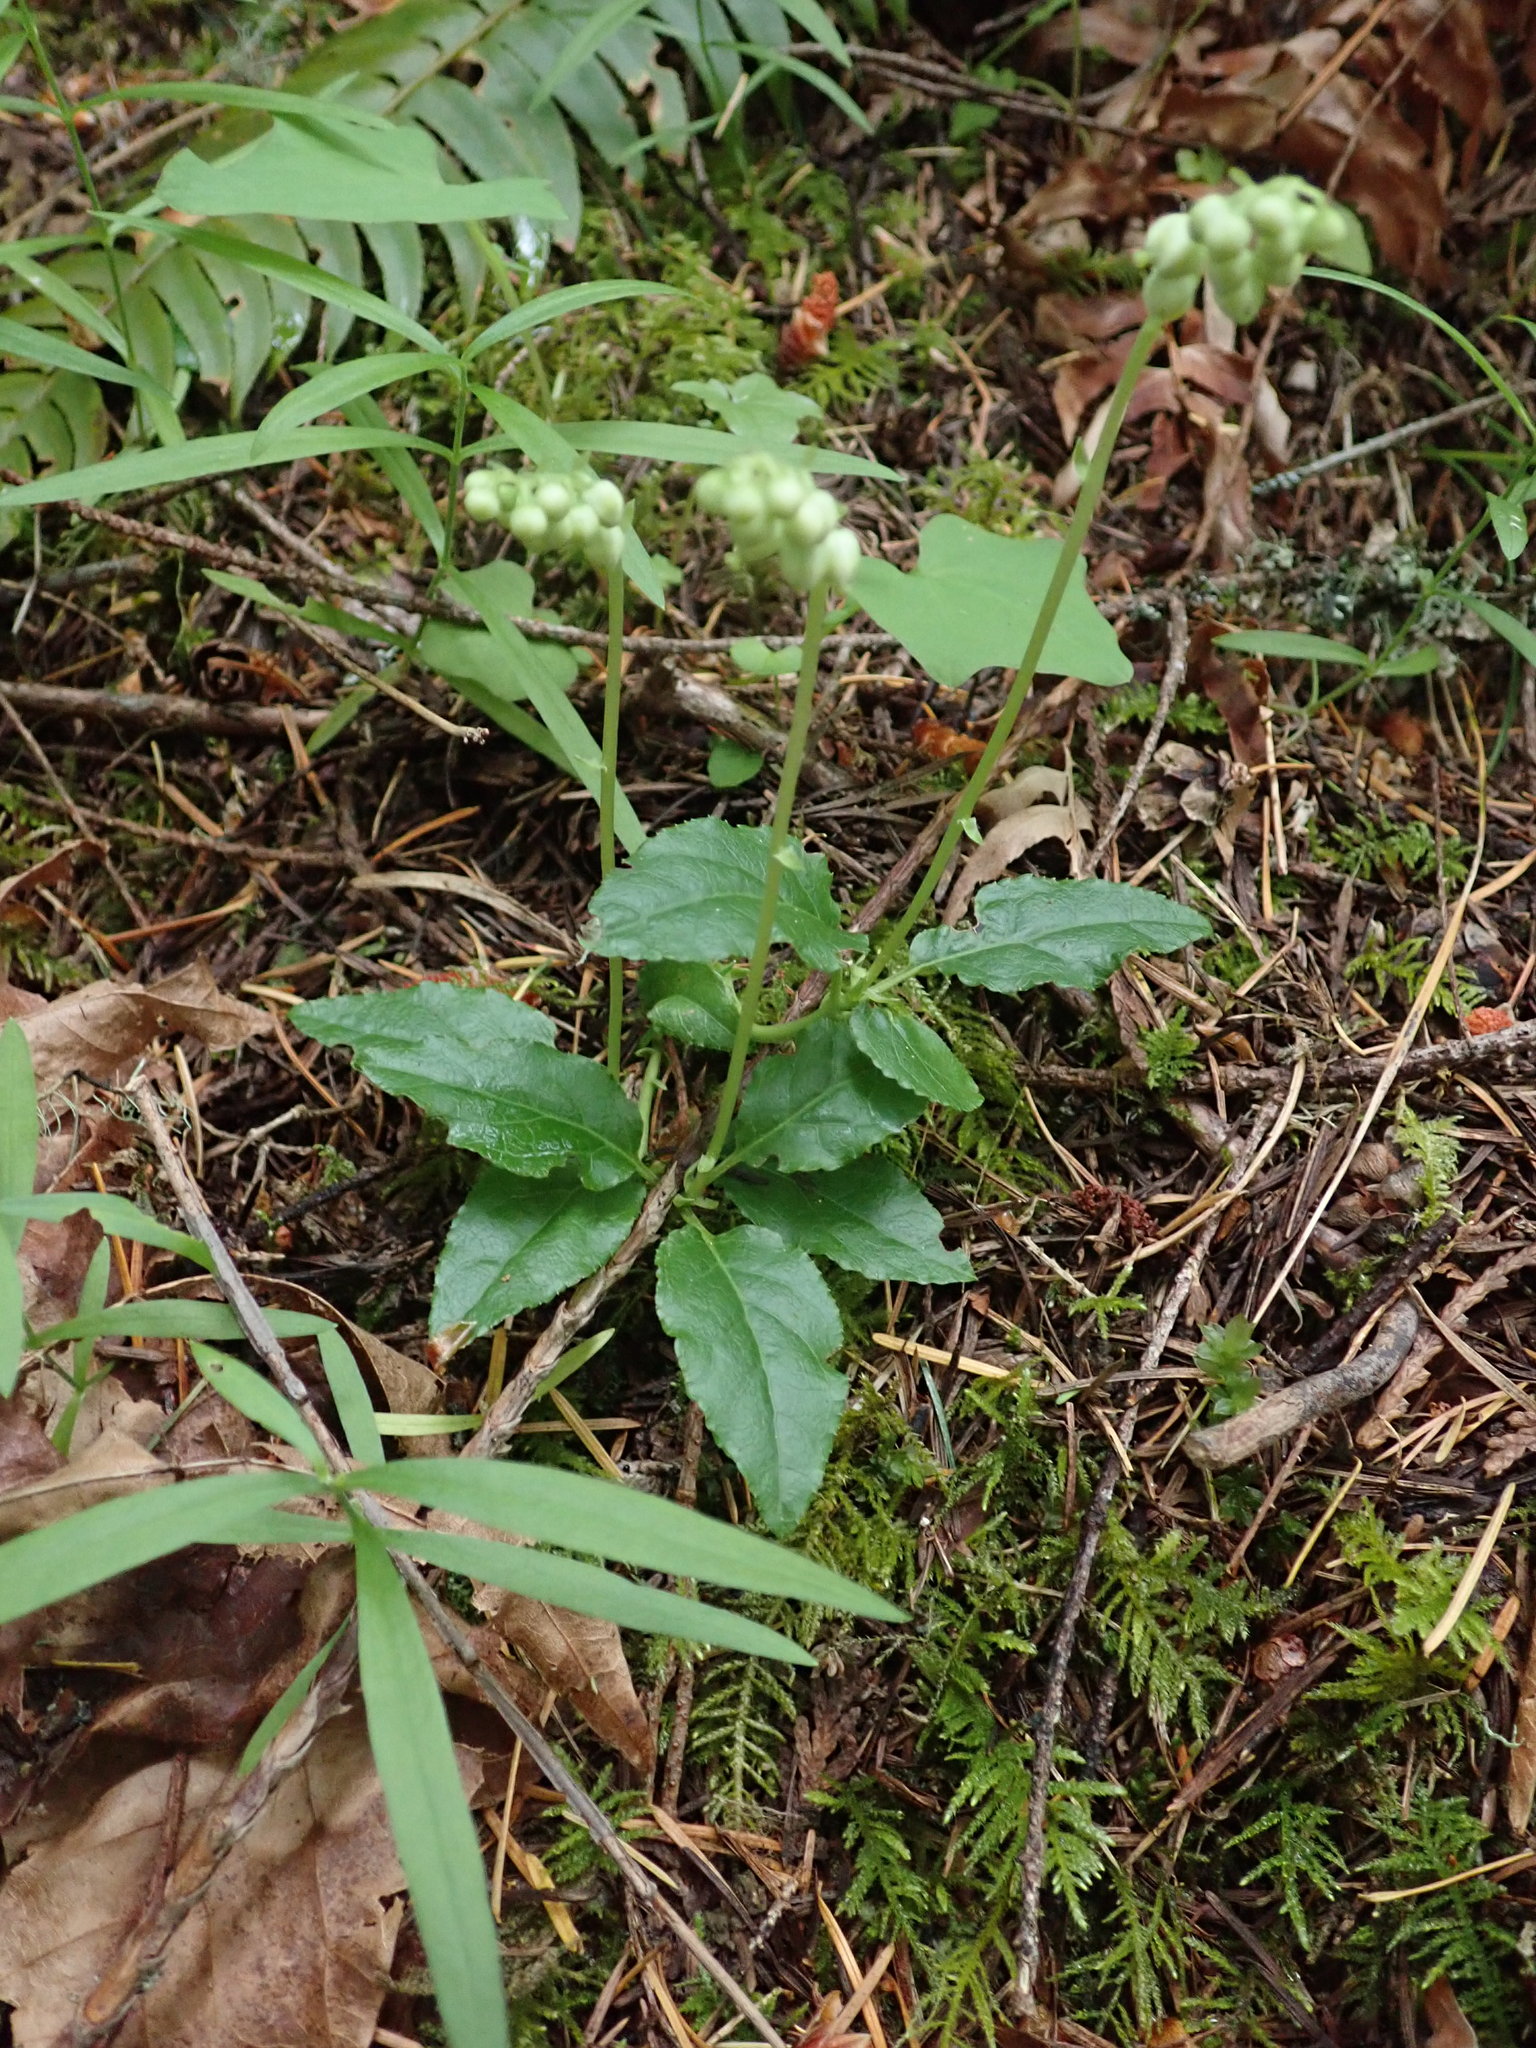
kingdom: Plantae
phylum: Tracheophyta
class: Magnoliopsida
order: Ericales
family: Ericaceae
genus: Orthilia
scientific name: Orthilia secunda
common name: One-sided orthilia
